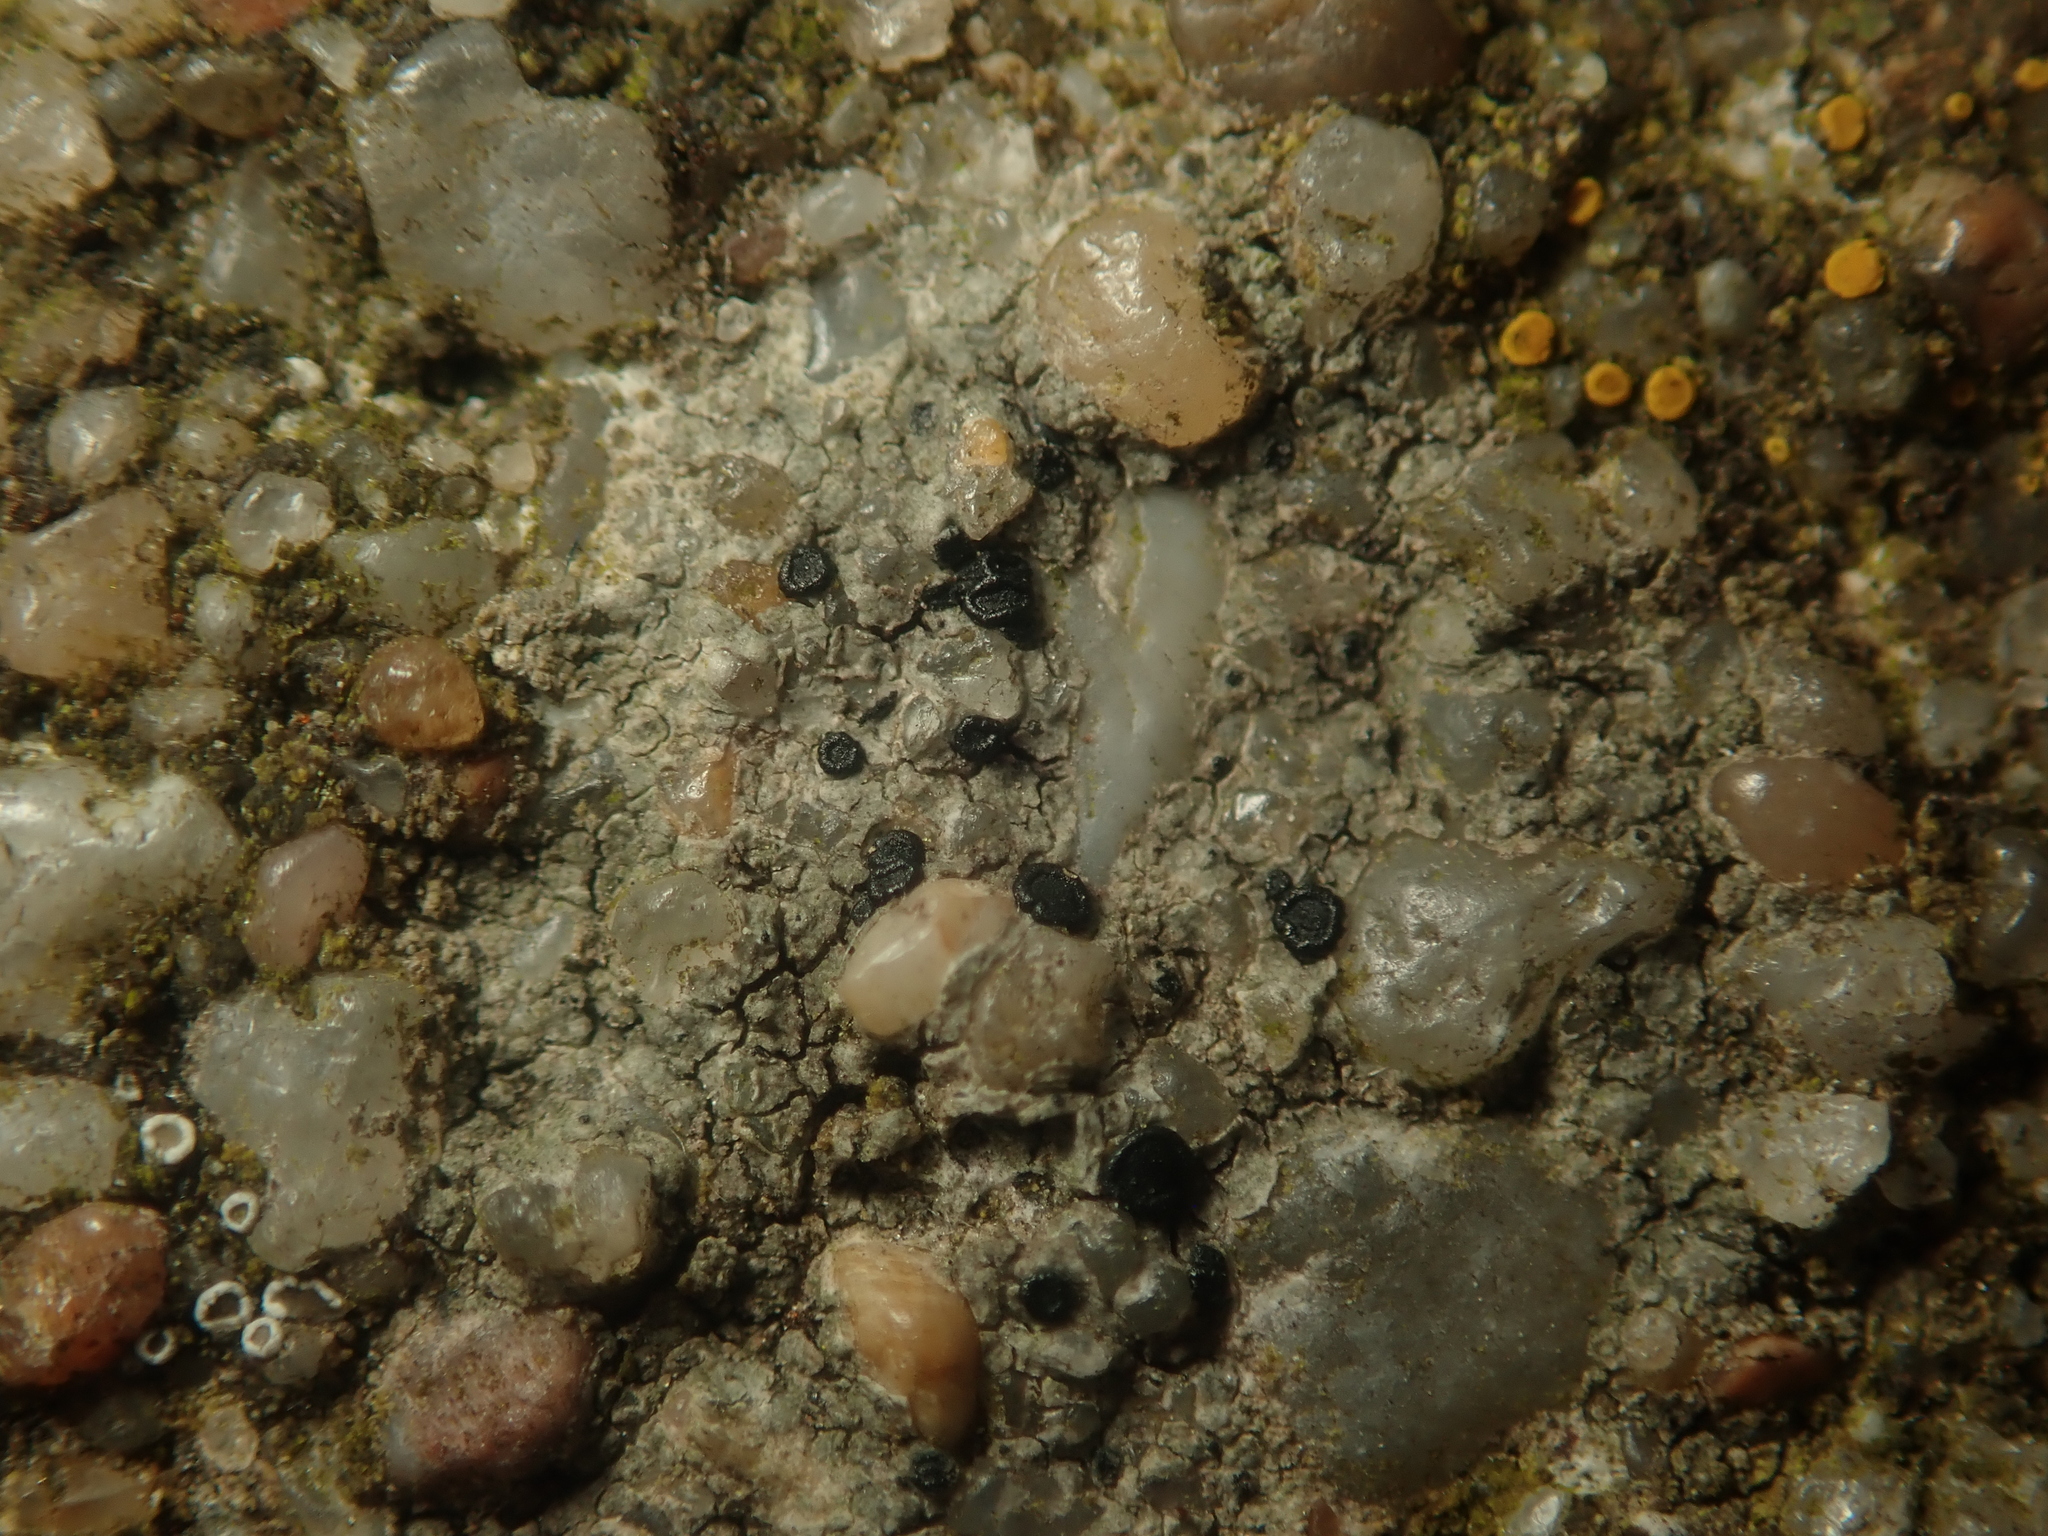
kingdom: Fungi
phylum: Ascomycota
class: Lecanoromycetes
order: Lecanorales
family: Lecanoraceae
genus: Lecidella
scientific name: Lecidella stigmatea
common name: Limestone disc lichen
